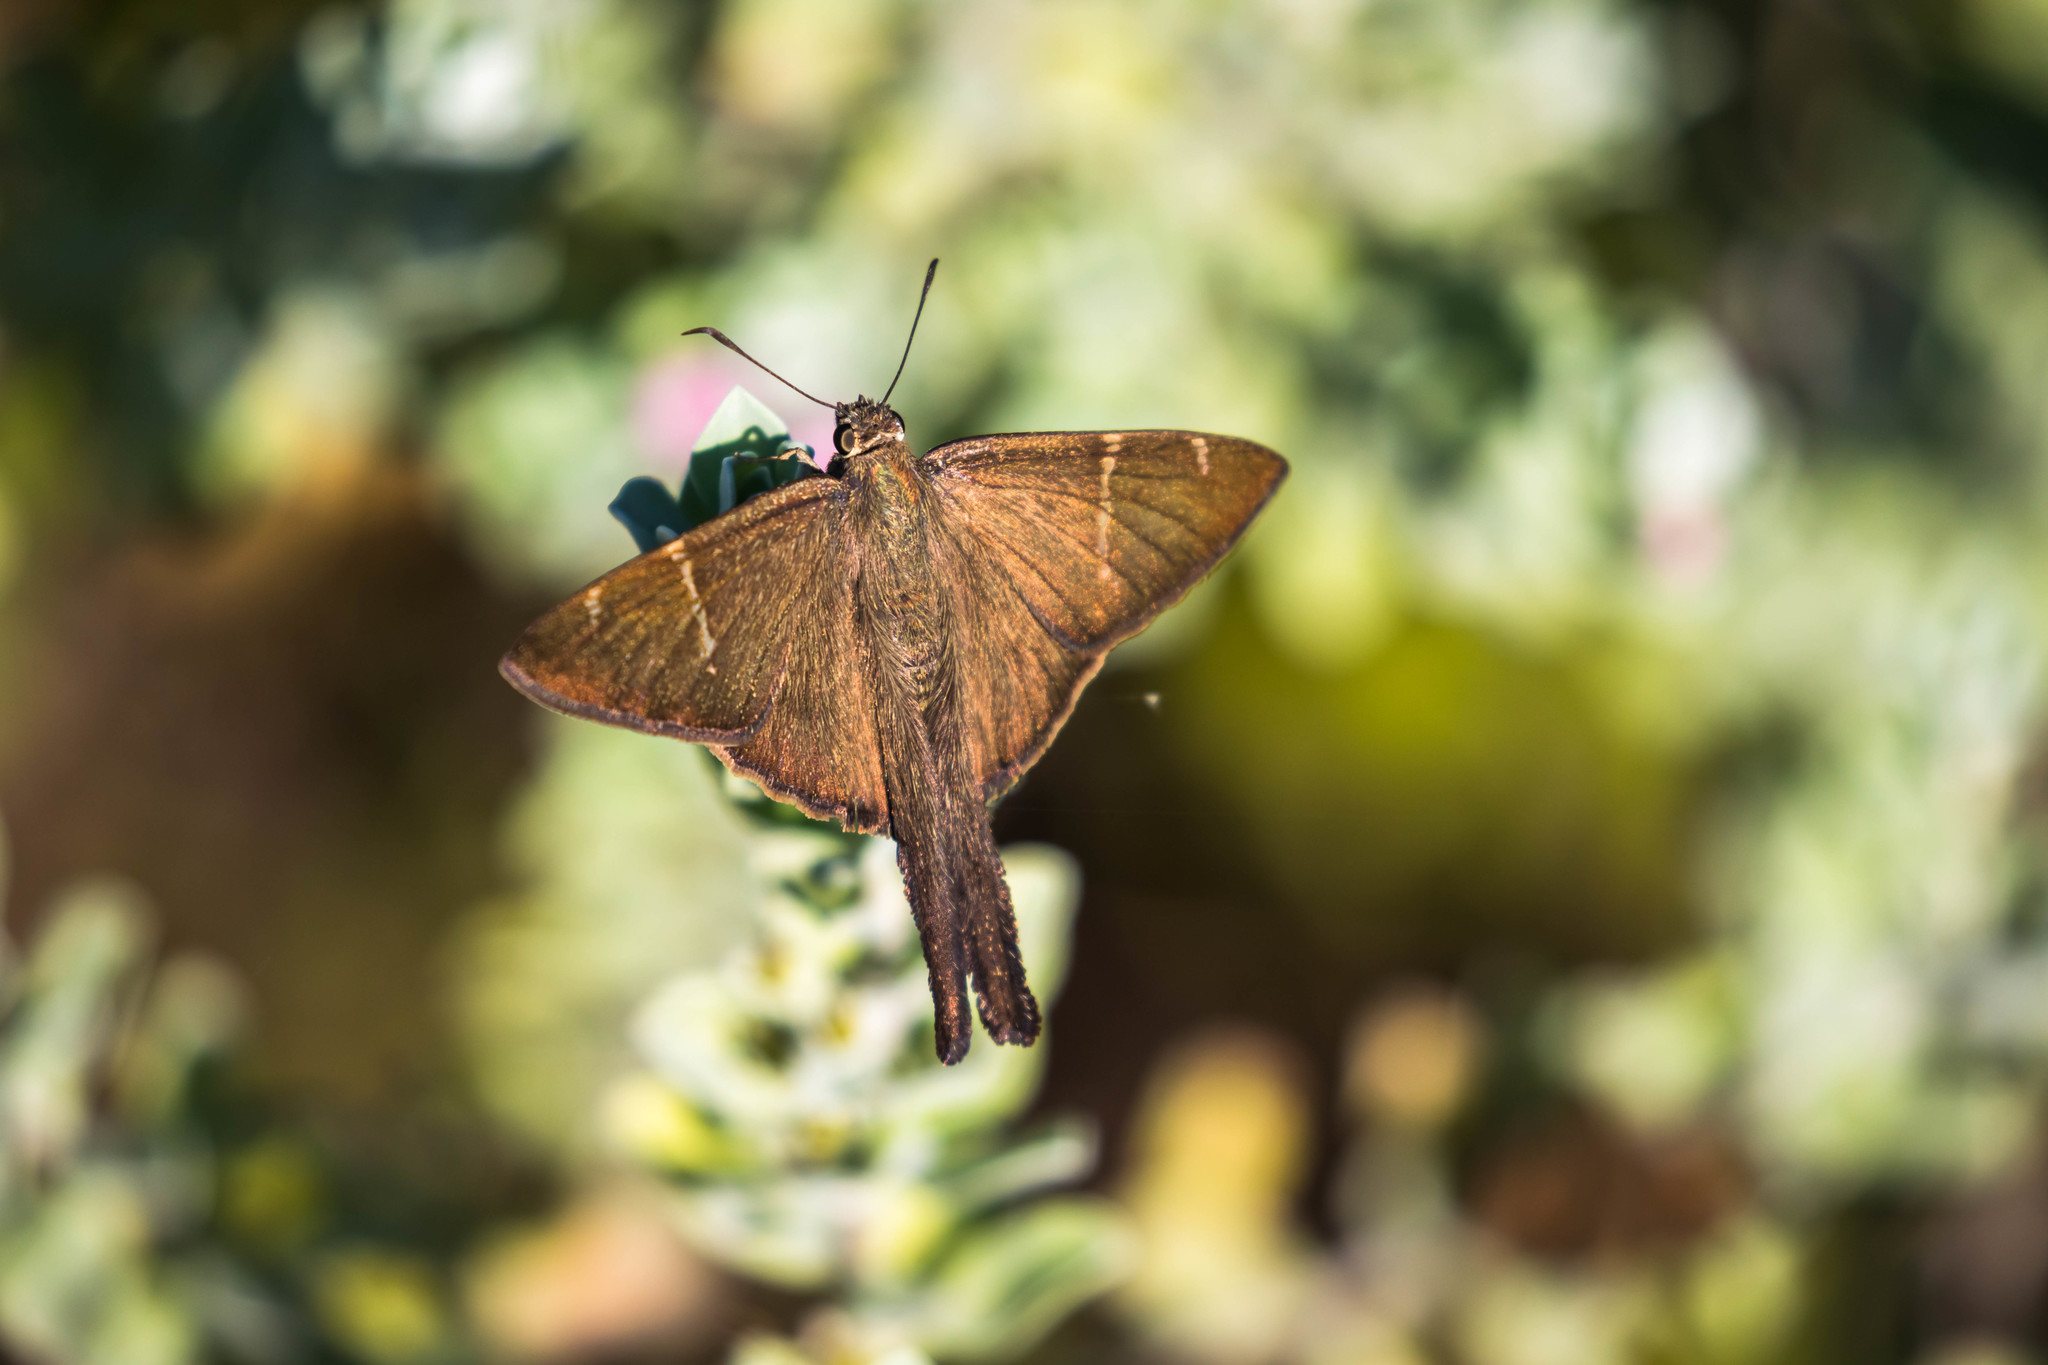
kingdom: Animalia
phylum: Arthropoda
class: Insecta
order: Lepidoptera
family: Hesperiidae
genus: Urbanus
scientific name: Urbanus procne
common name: Brown longtail
